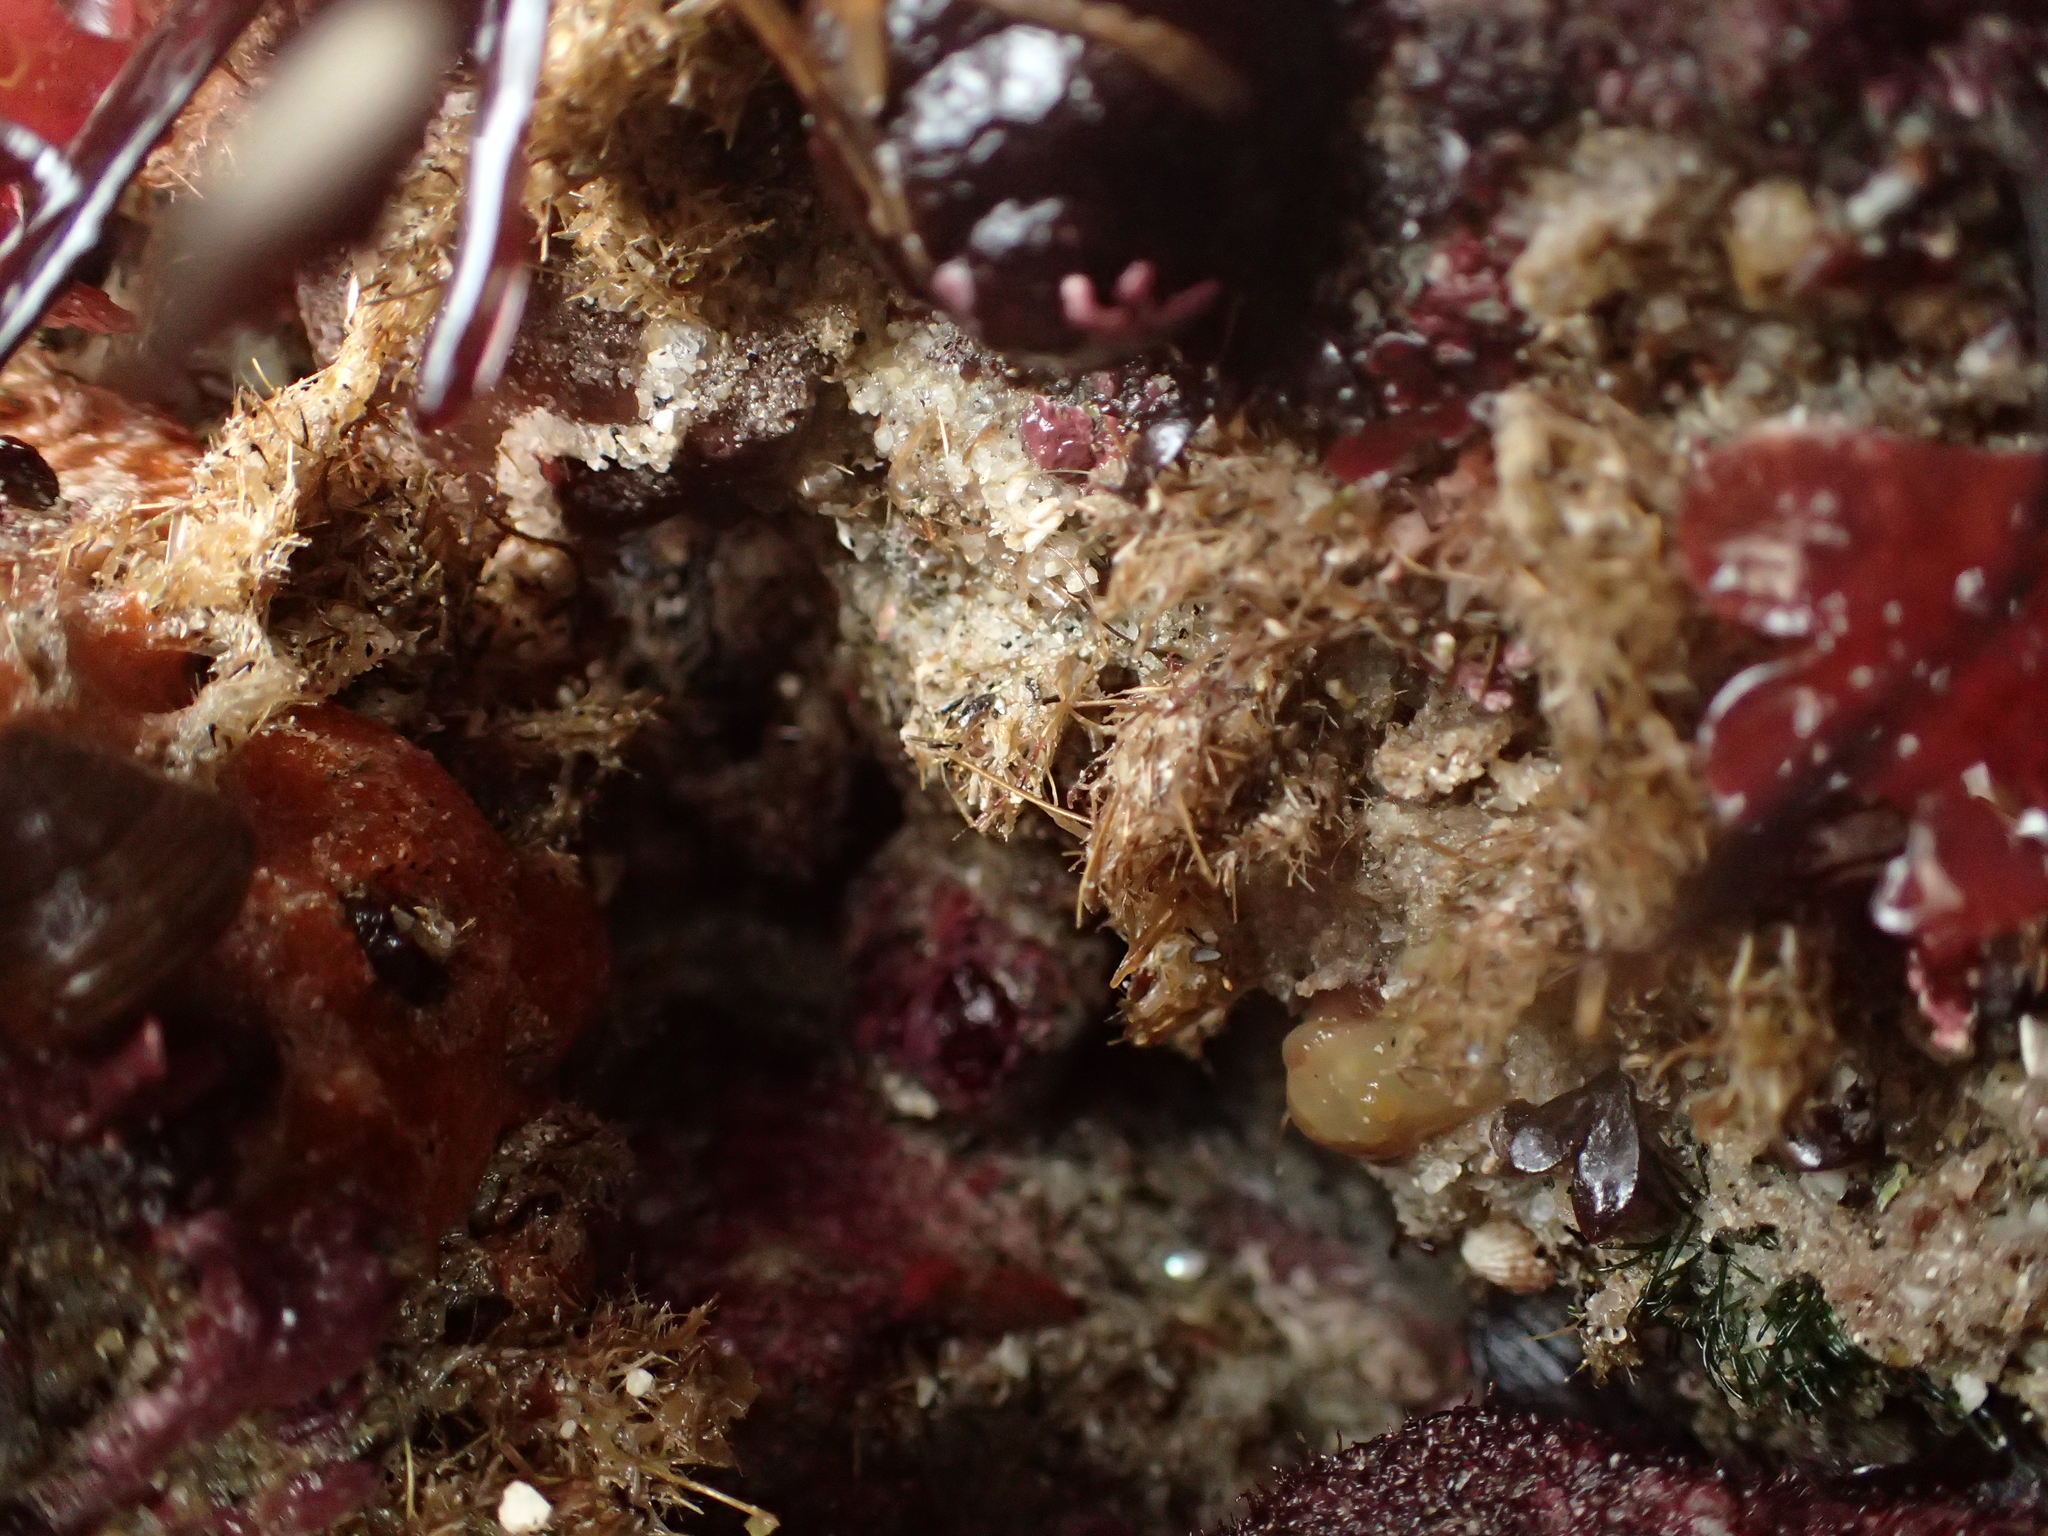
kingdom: Animalia
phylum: Annelida
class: Polychaeta
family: Terebellidae
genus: Pista
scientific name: Pista elongata
